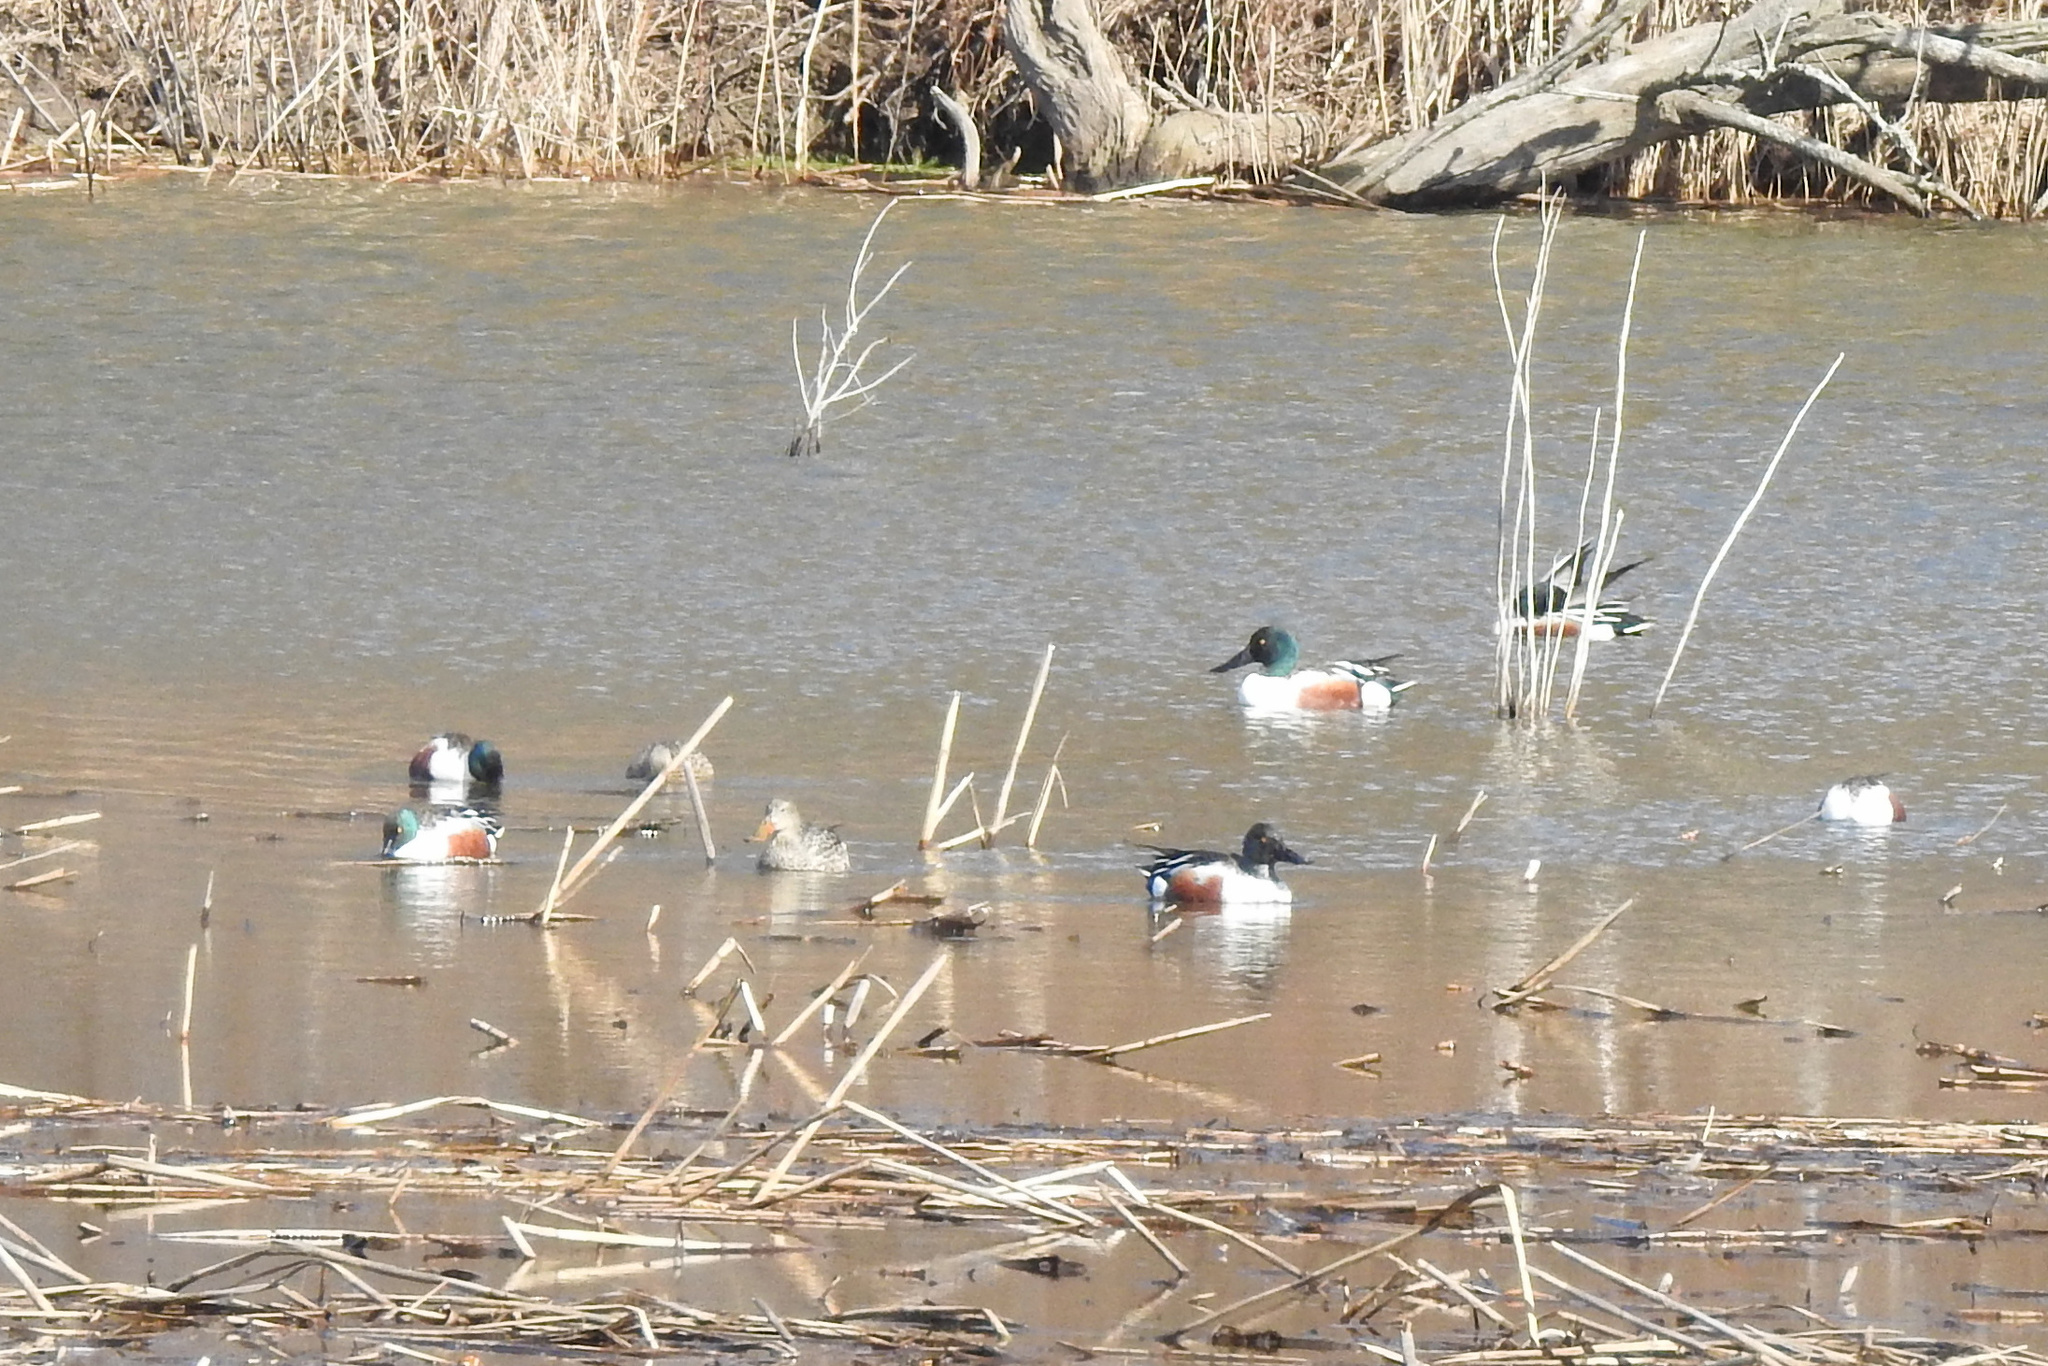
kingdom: Animalia
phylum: Chordata
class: Aves
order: Anseriformes
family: Anatidae
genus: Spatula
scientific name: Spatula clypeata
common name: Northern shoveler
